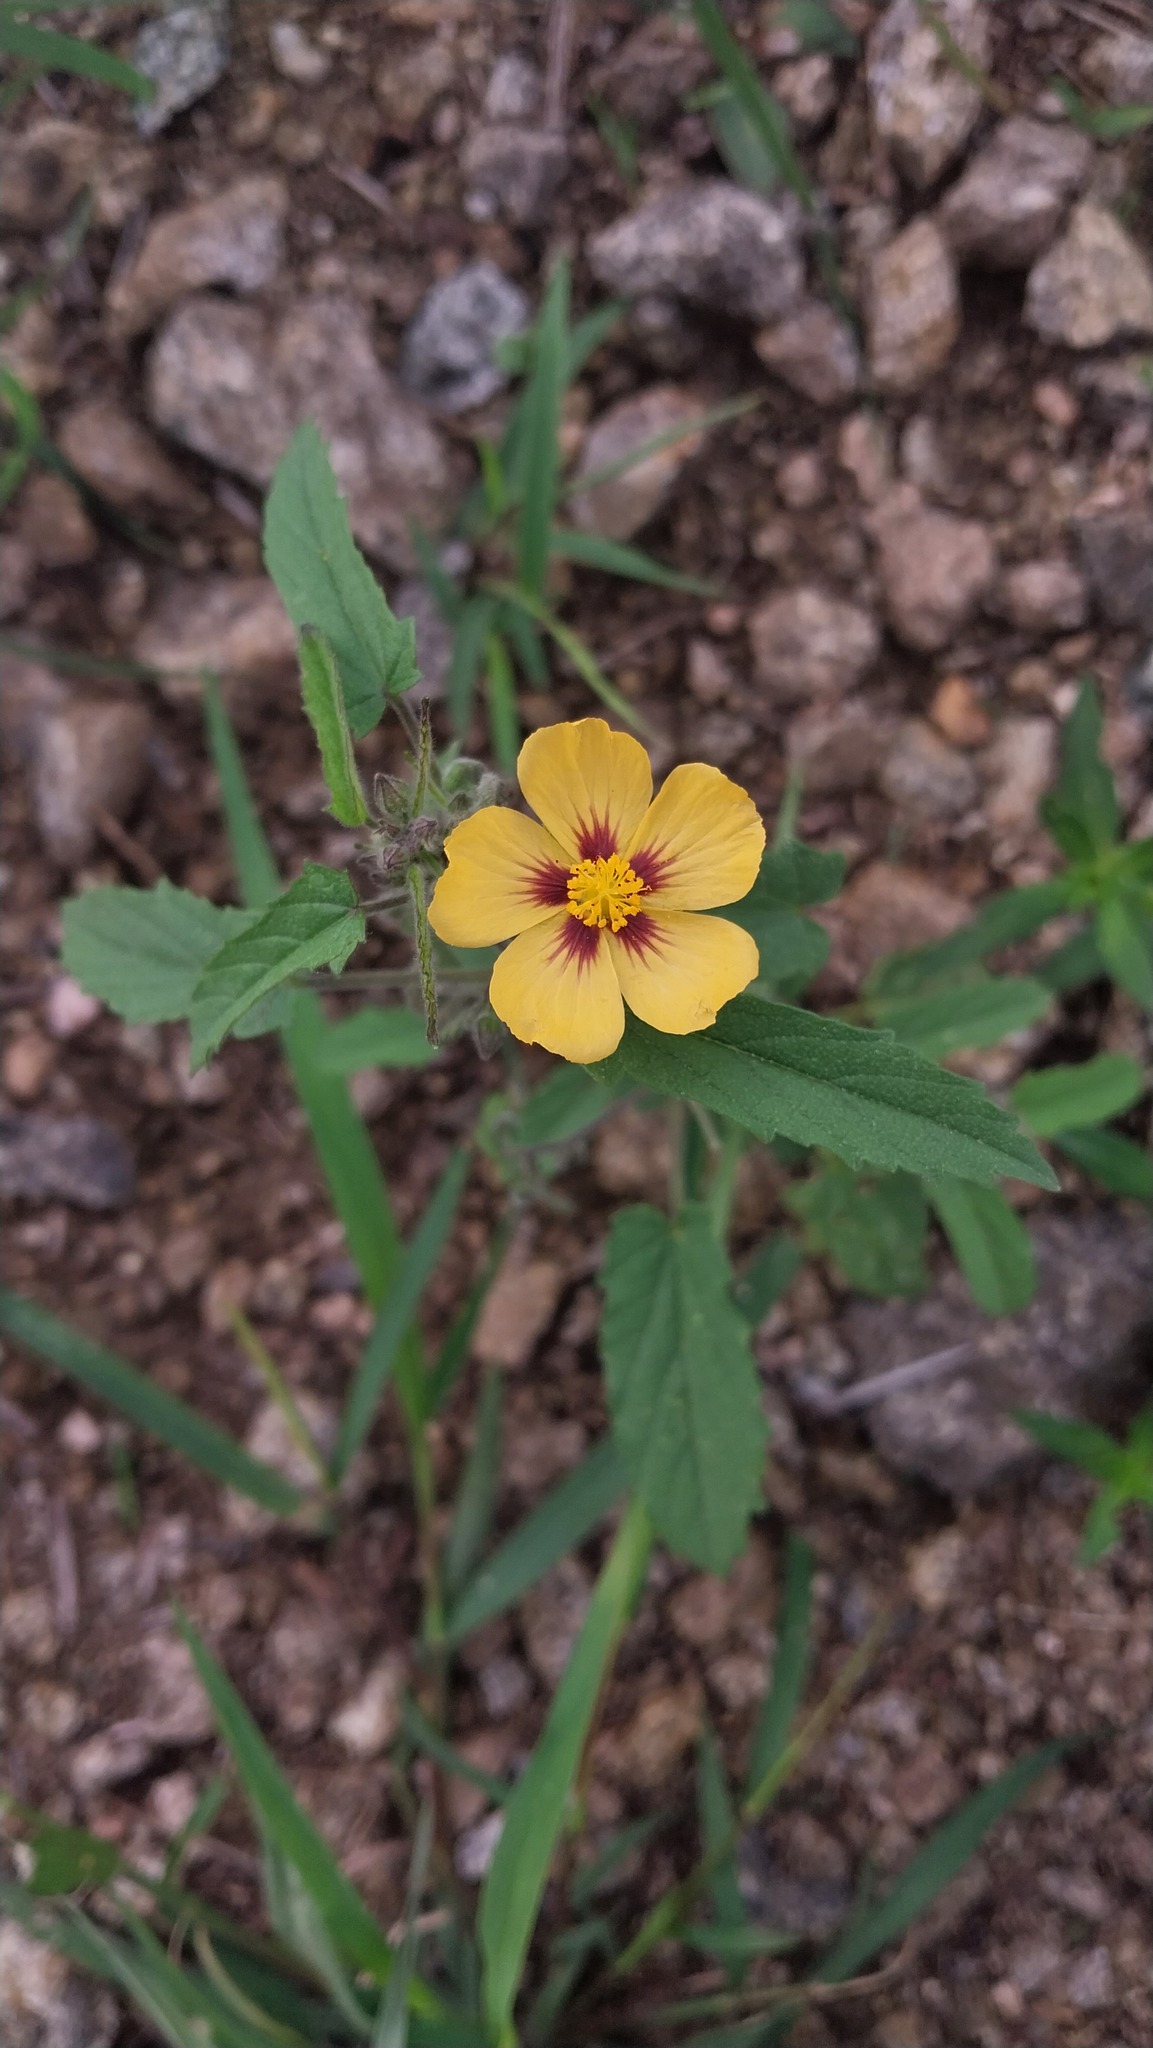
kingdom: Plantae
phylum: Tracheophyta
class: Magnoliopsida
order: Malvales
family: Malvaceae
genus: Gaya
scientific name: Gaya parviflora
